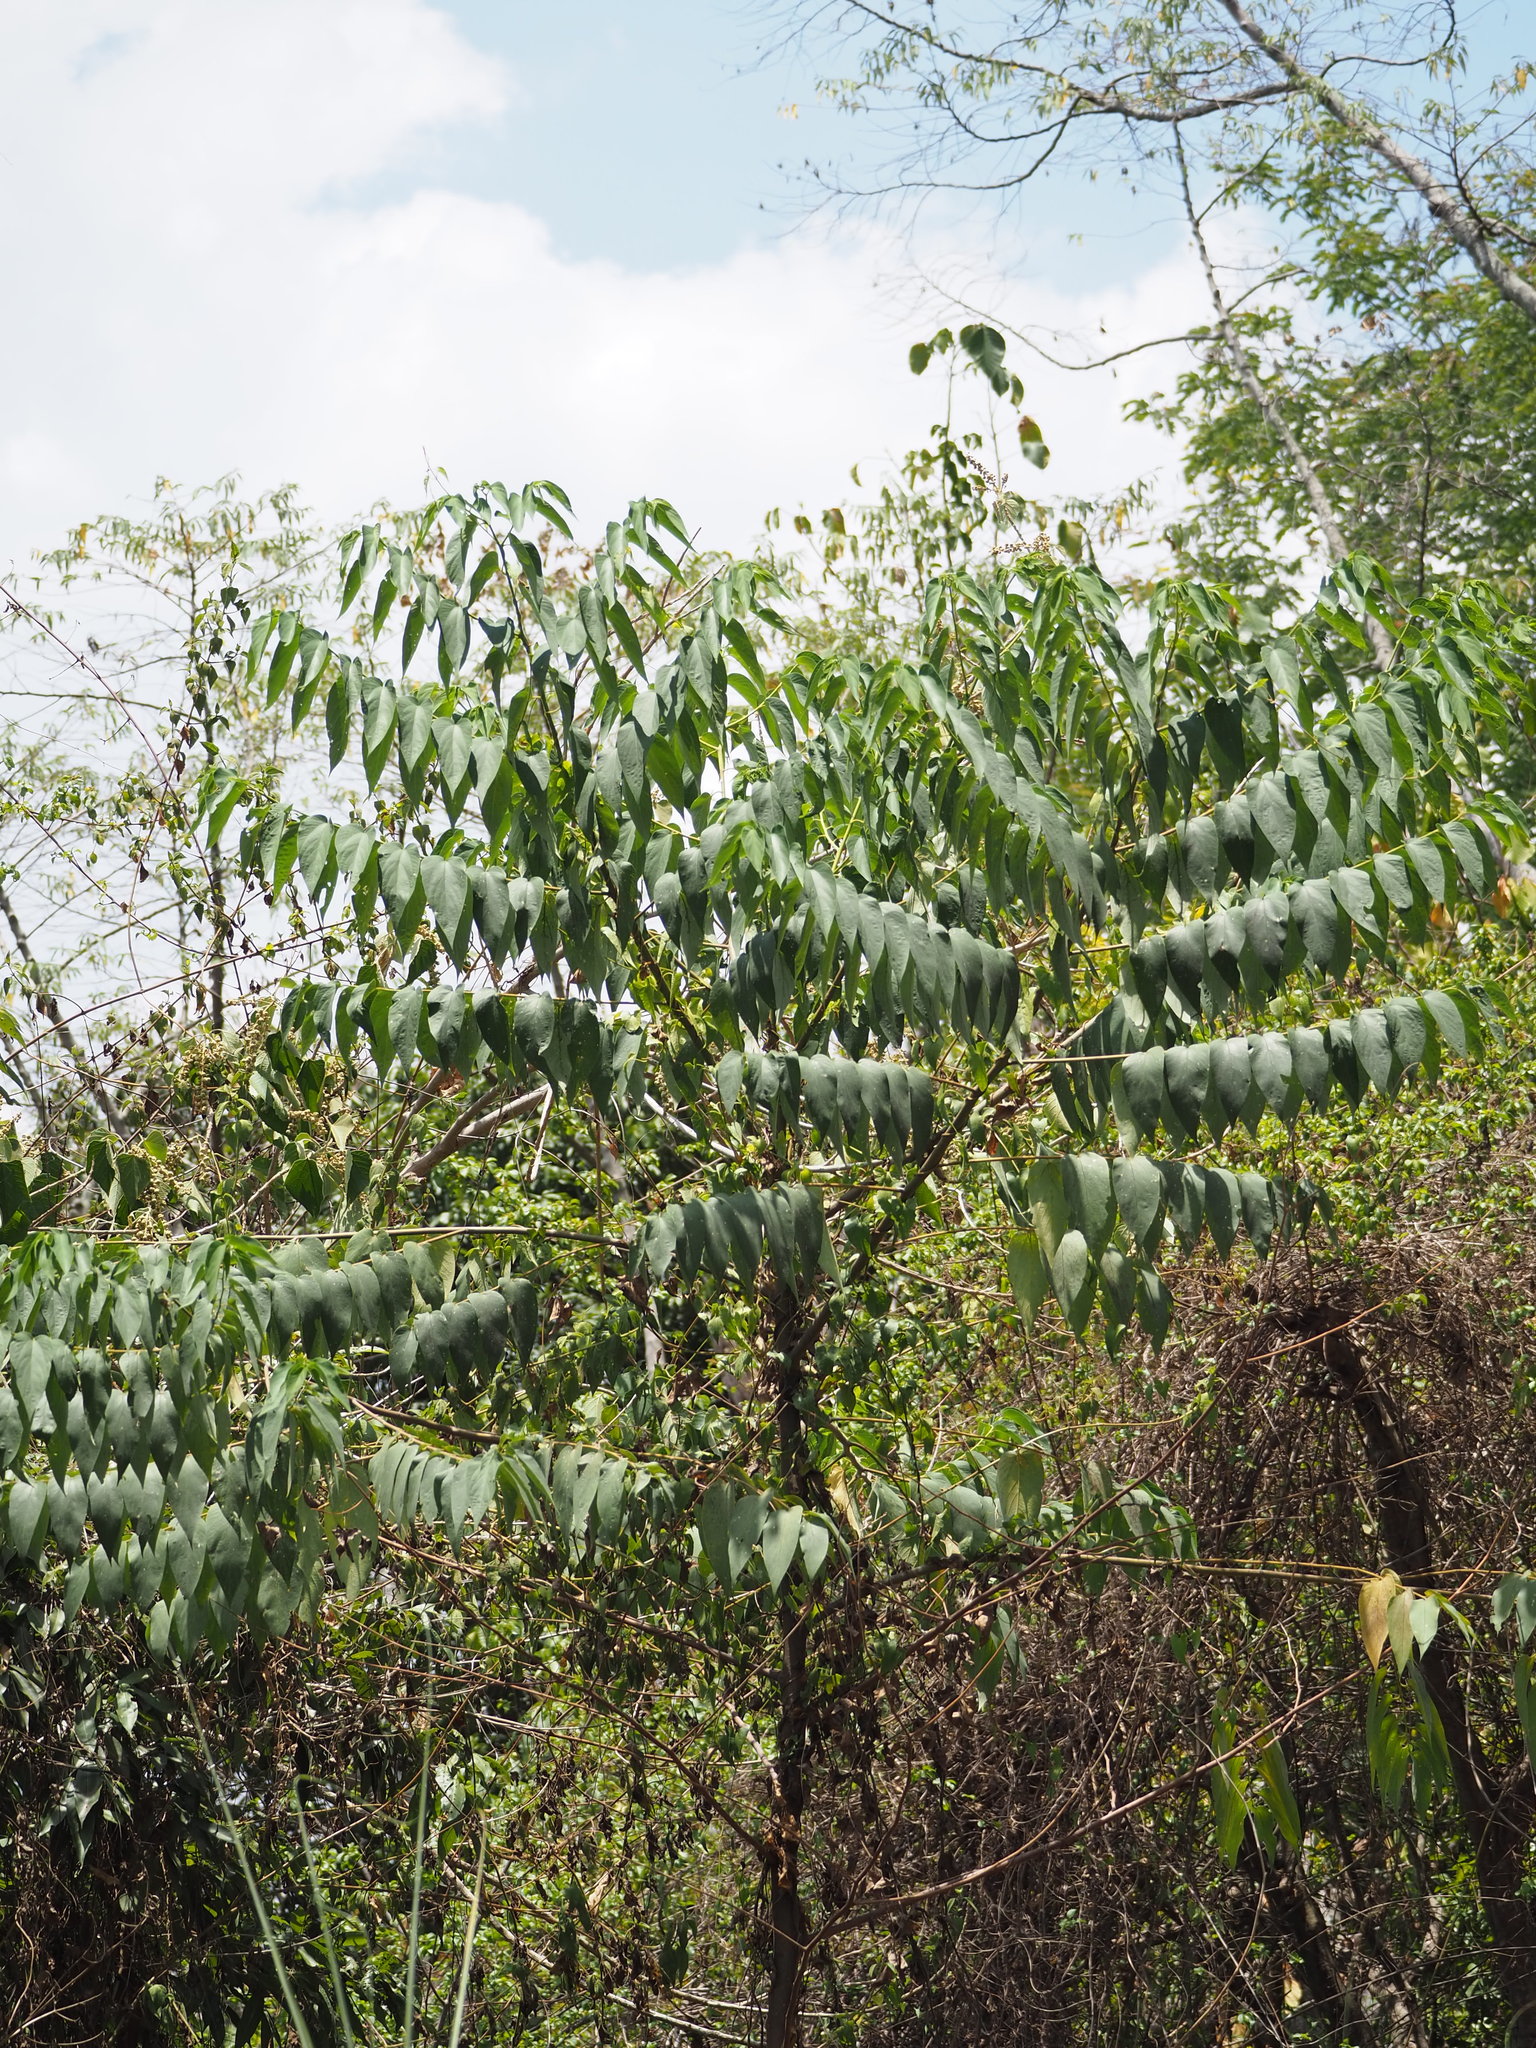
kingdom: Plantae
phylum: Tracheophyta
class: Magnoliopsida
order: Rosales
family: Cannabaceae
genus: Trema
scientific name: Trema orientale
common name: Indian charcoal tree
